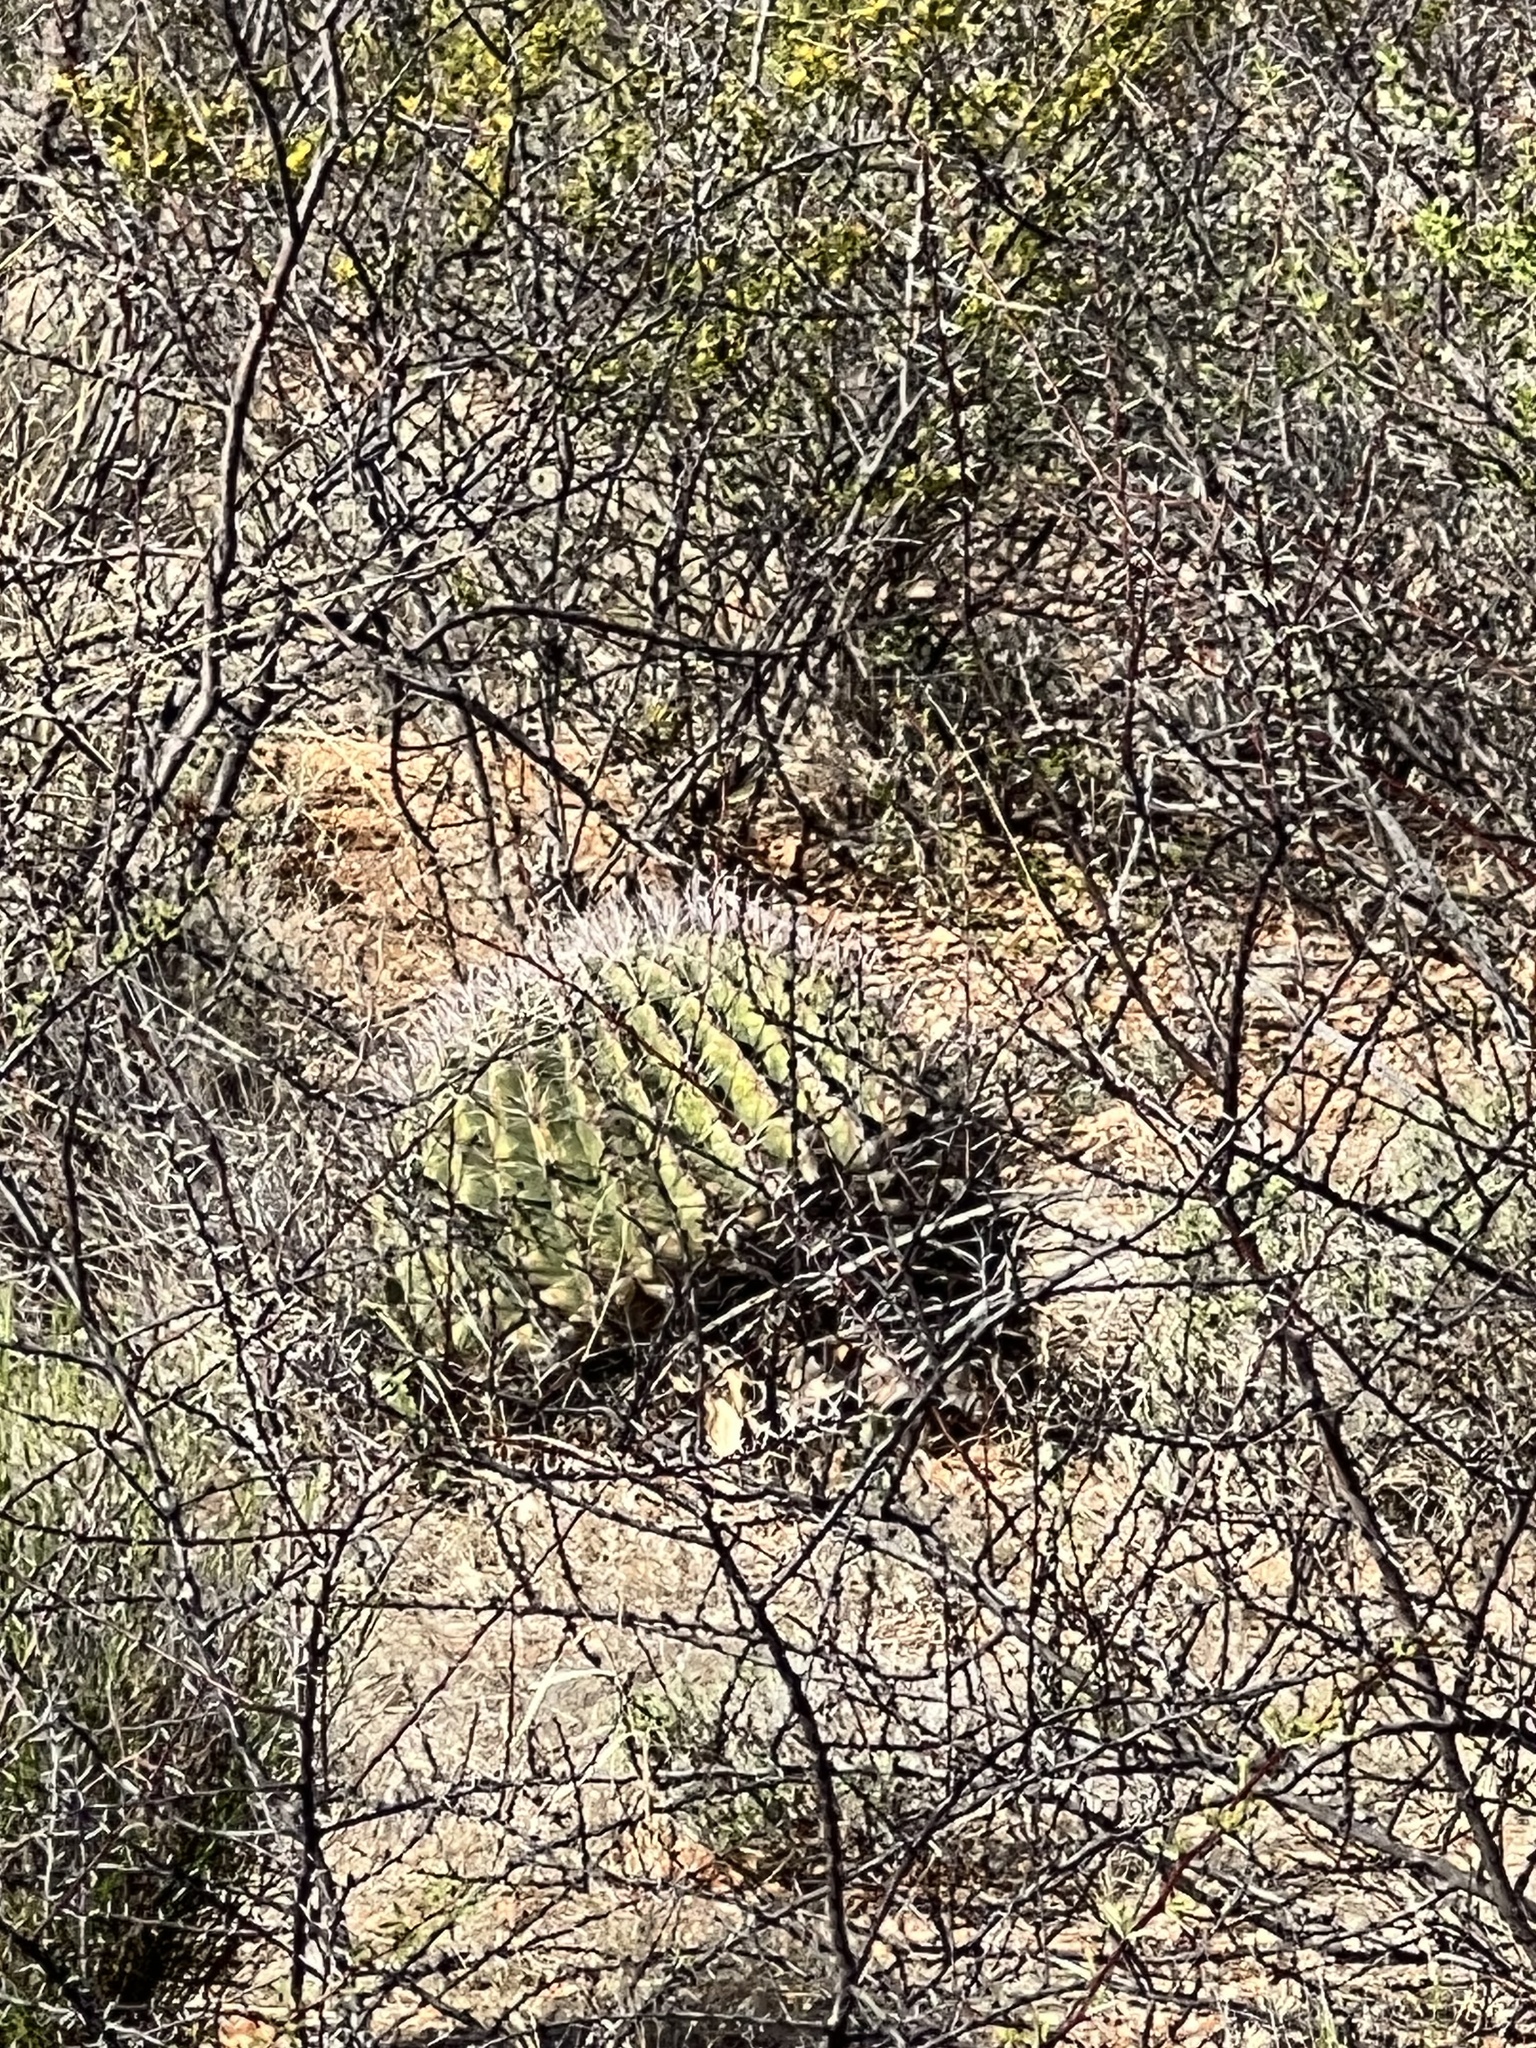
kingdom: Plantae
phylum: Tracheophyta
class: Magnoliopsida
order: Caryophyllales
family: Cactaceae
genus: Ferocactus
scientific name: Ferocactus wislizeni
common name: Candy barrel cactus
